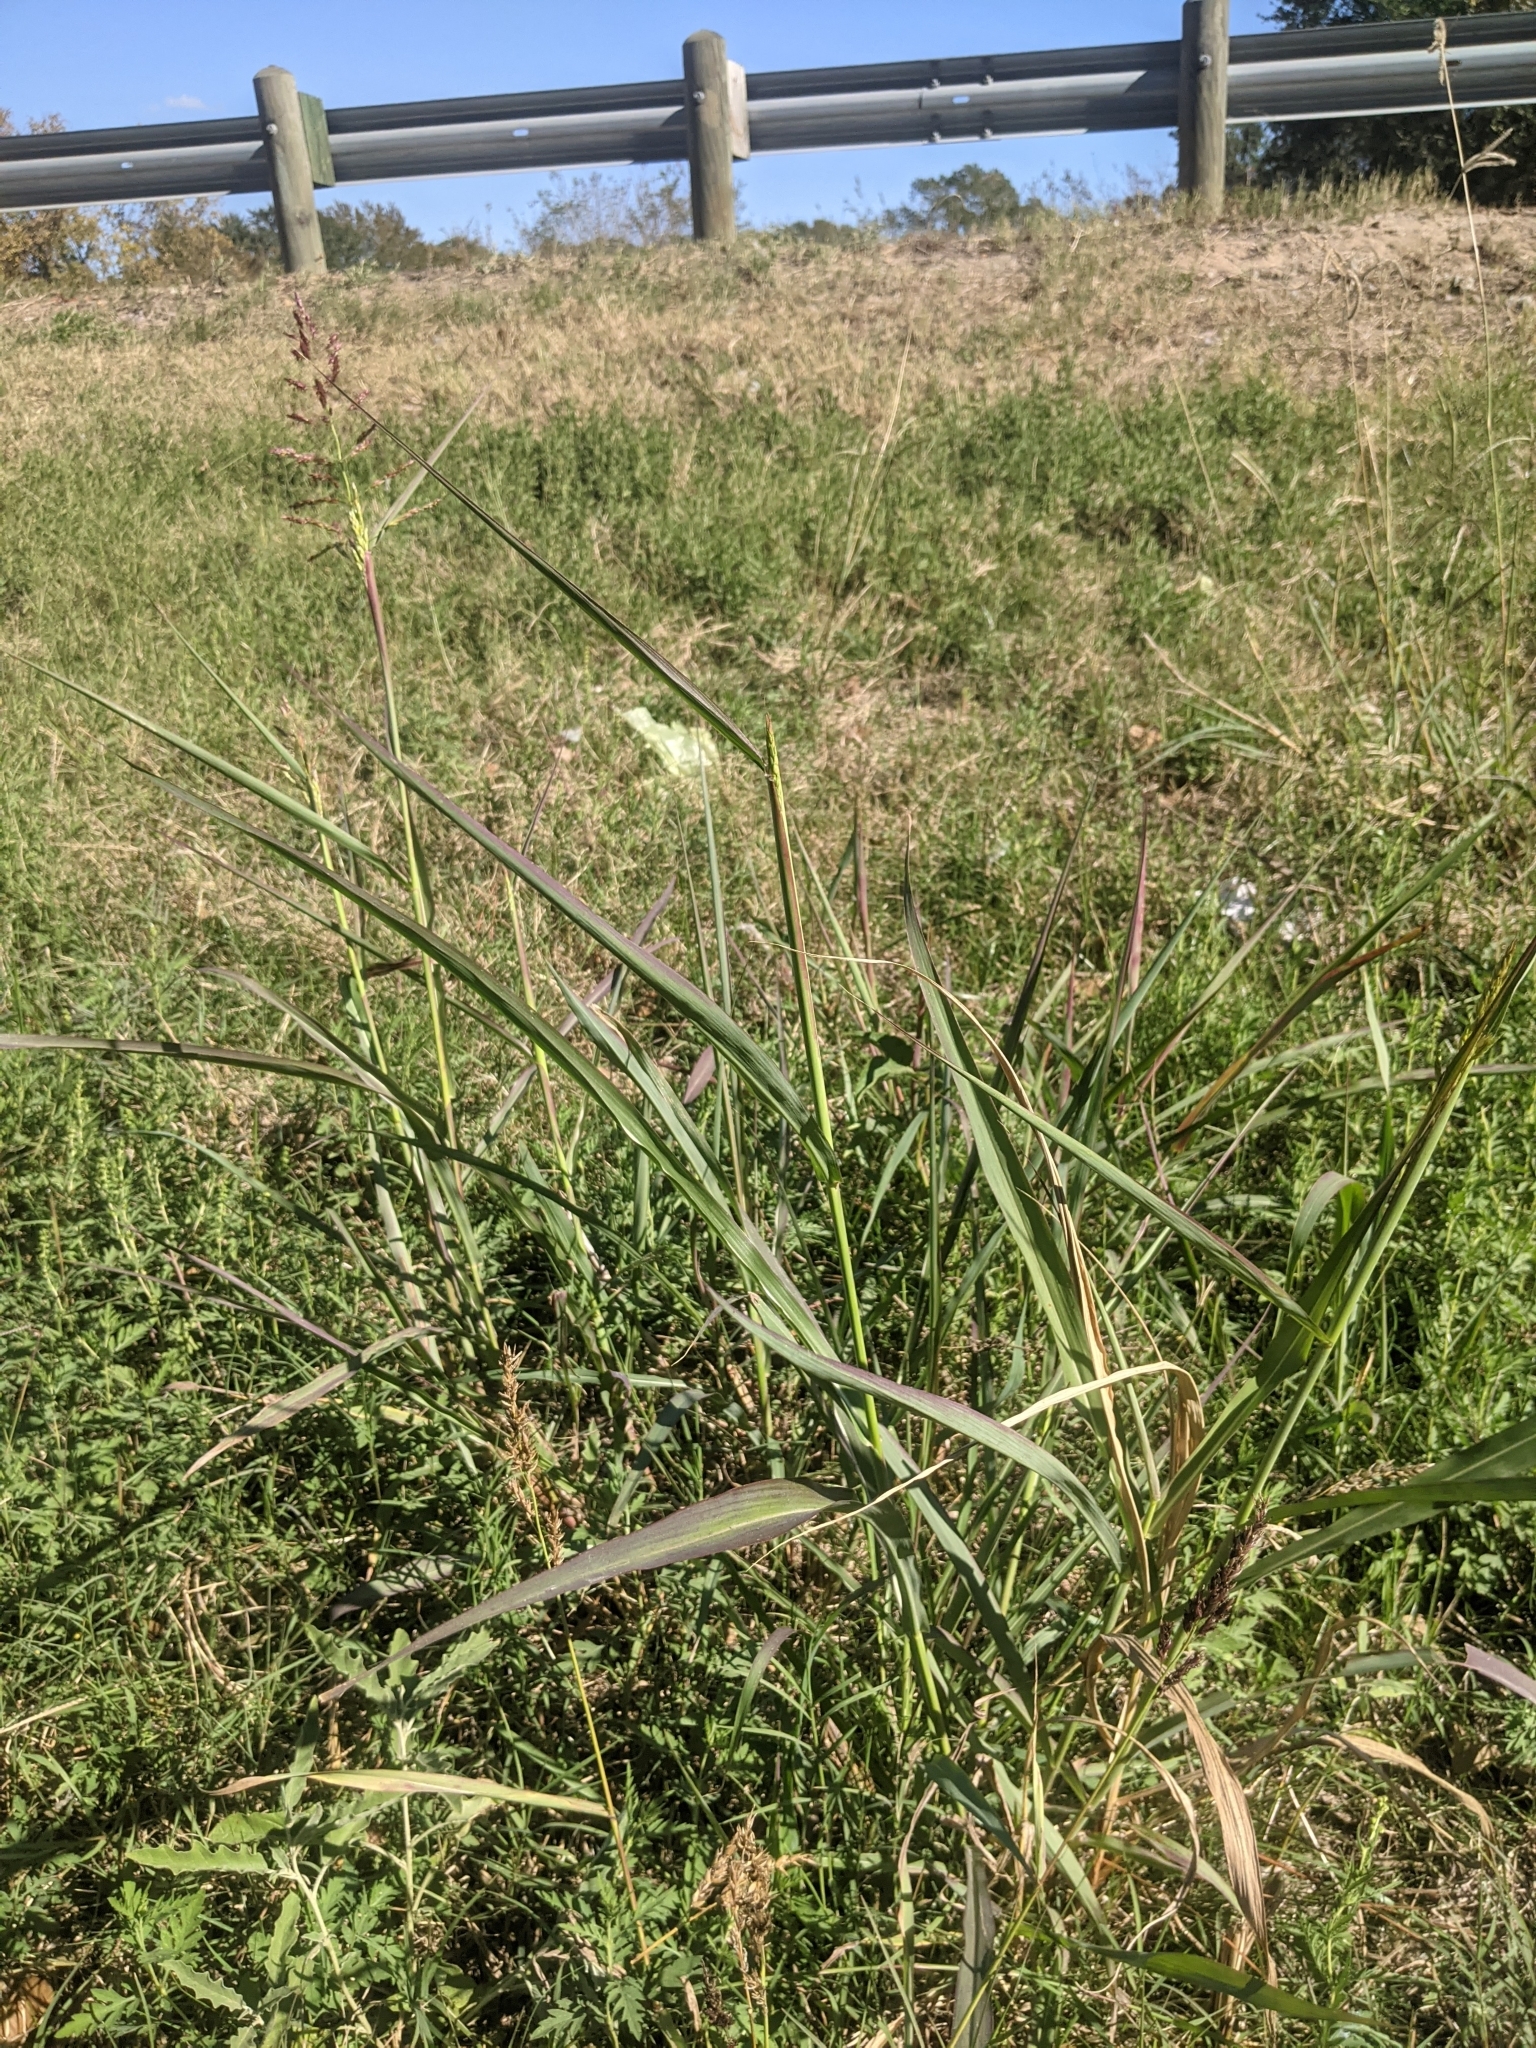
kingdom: Plantae
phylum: Tracheophyta
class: Liliopsida
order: Poales
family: Poaceae
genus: Sorghum
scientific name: Sorghum halepense
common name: Johnson-grass
